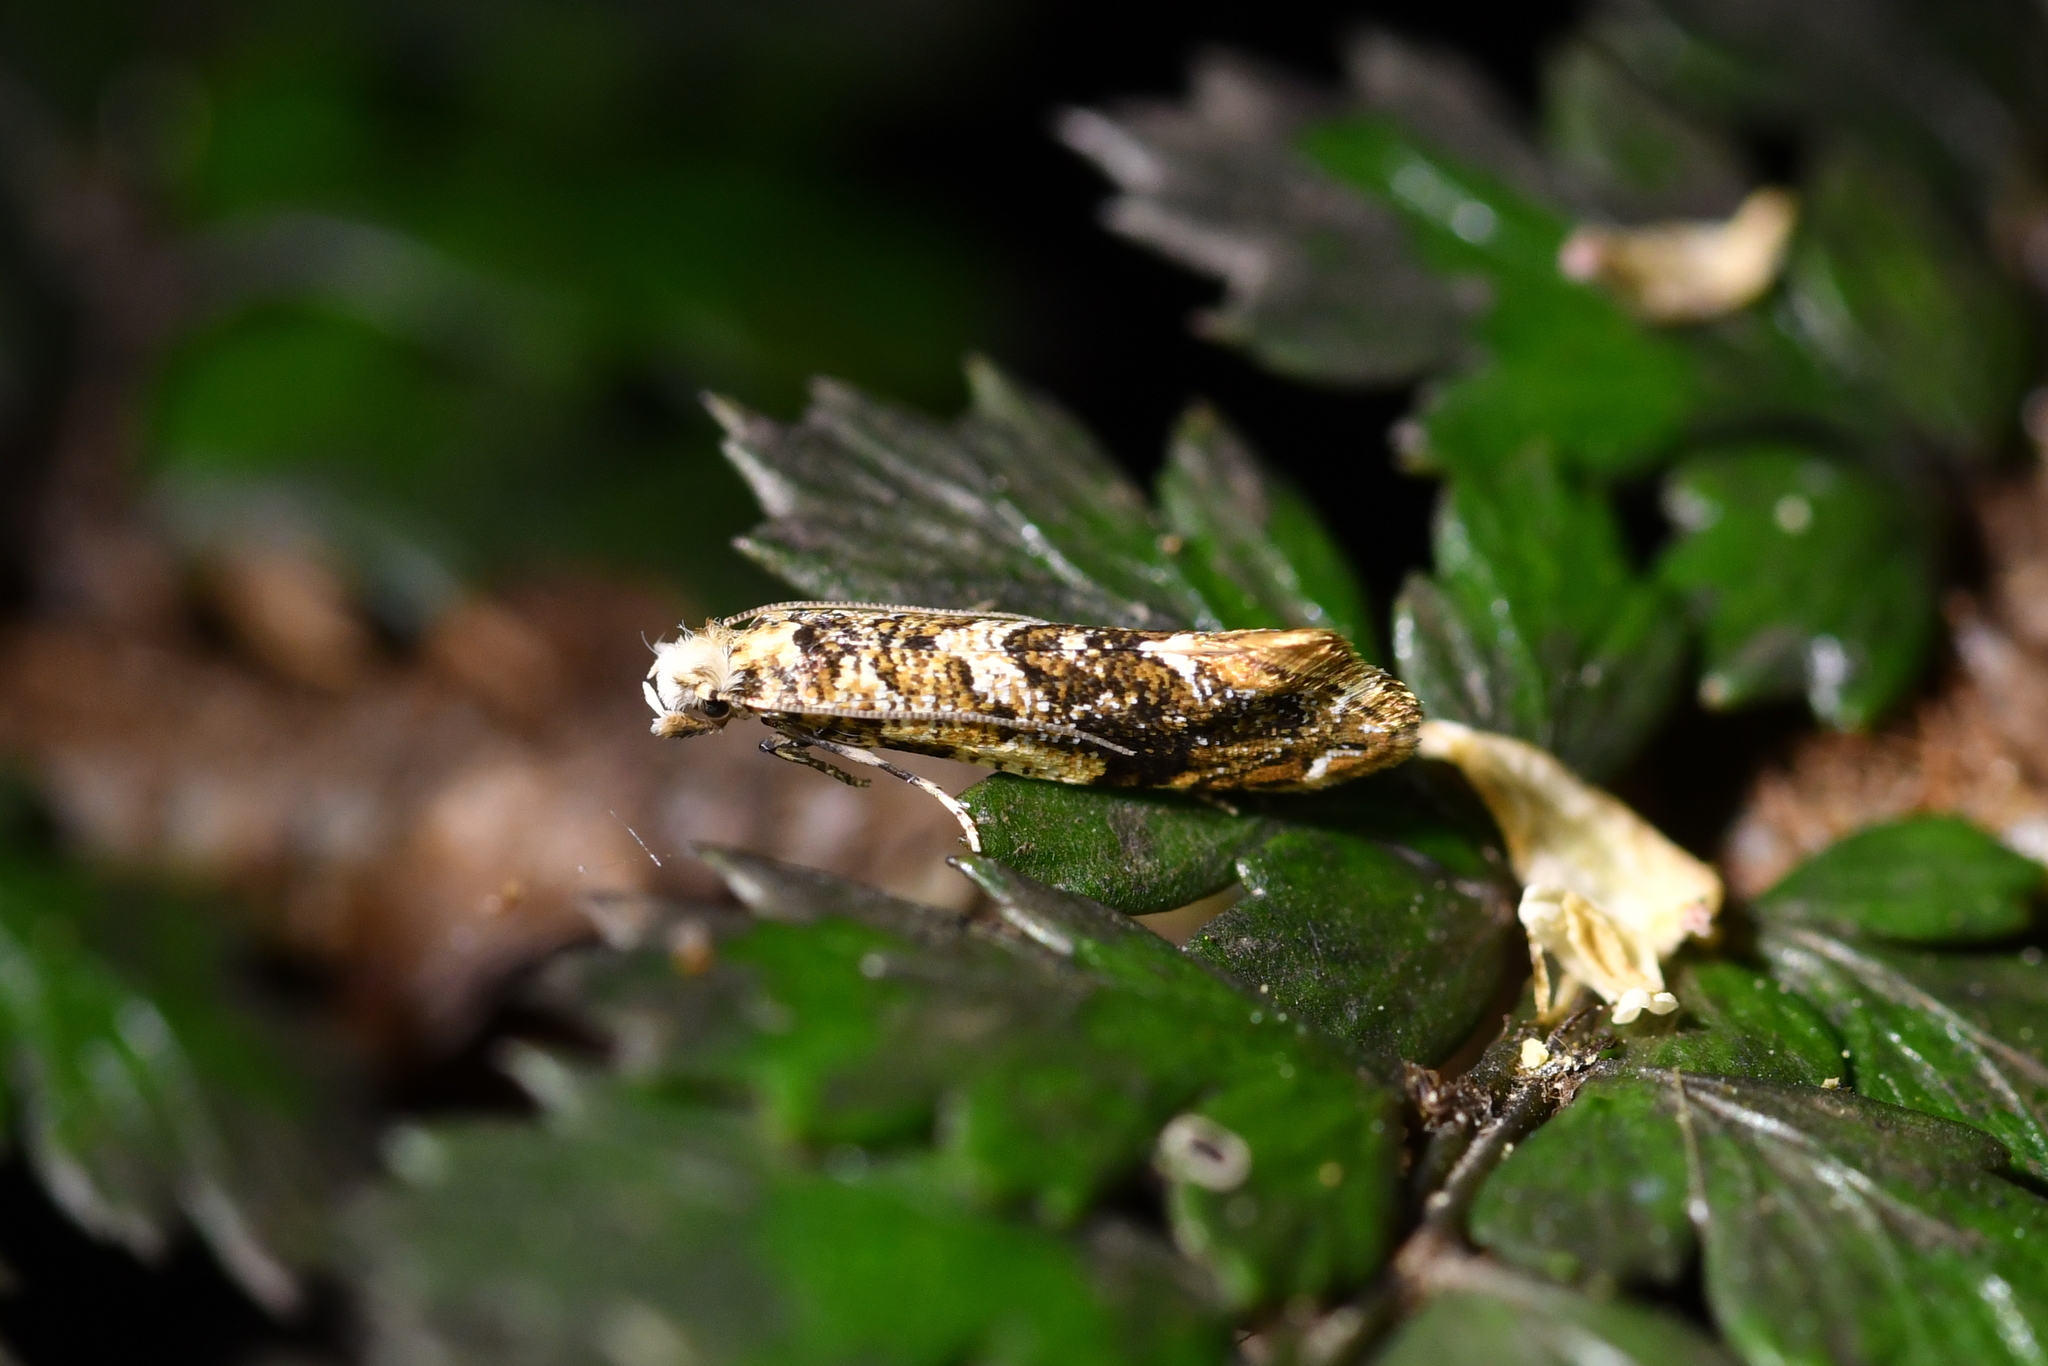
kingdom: Animalia
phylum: Arthropoda
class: Insecta
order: Lepidoptera
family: Tineidae
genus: Eschatotypa
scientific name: Eschatotypa derogatella
